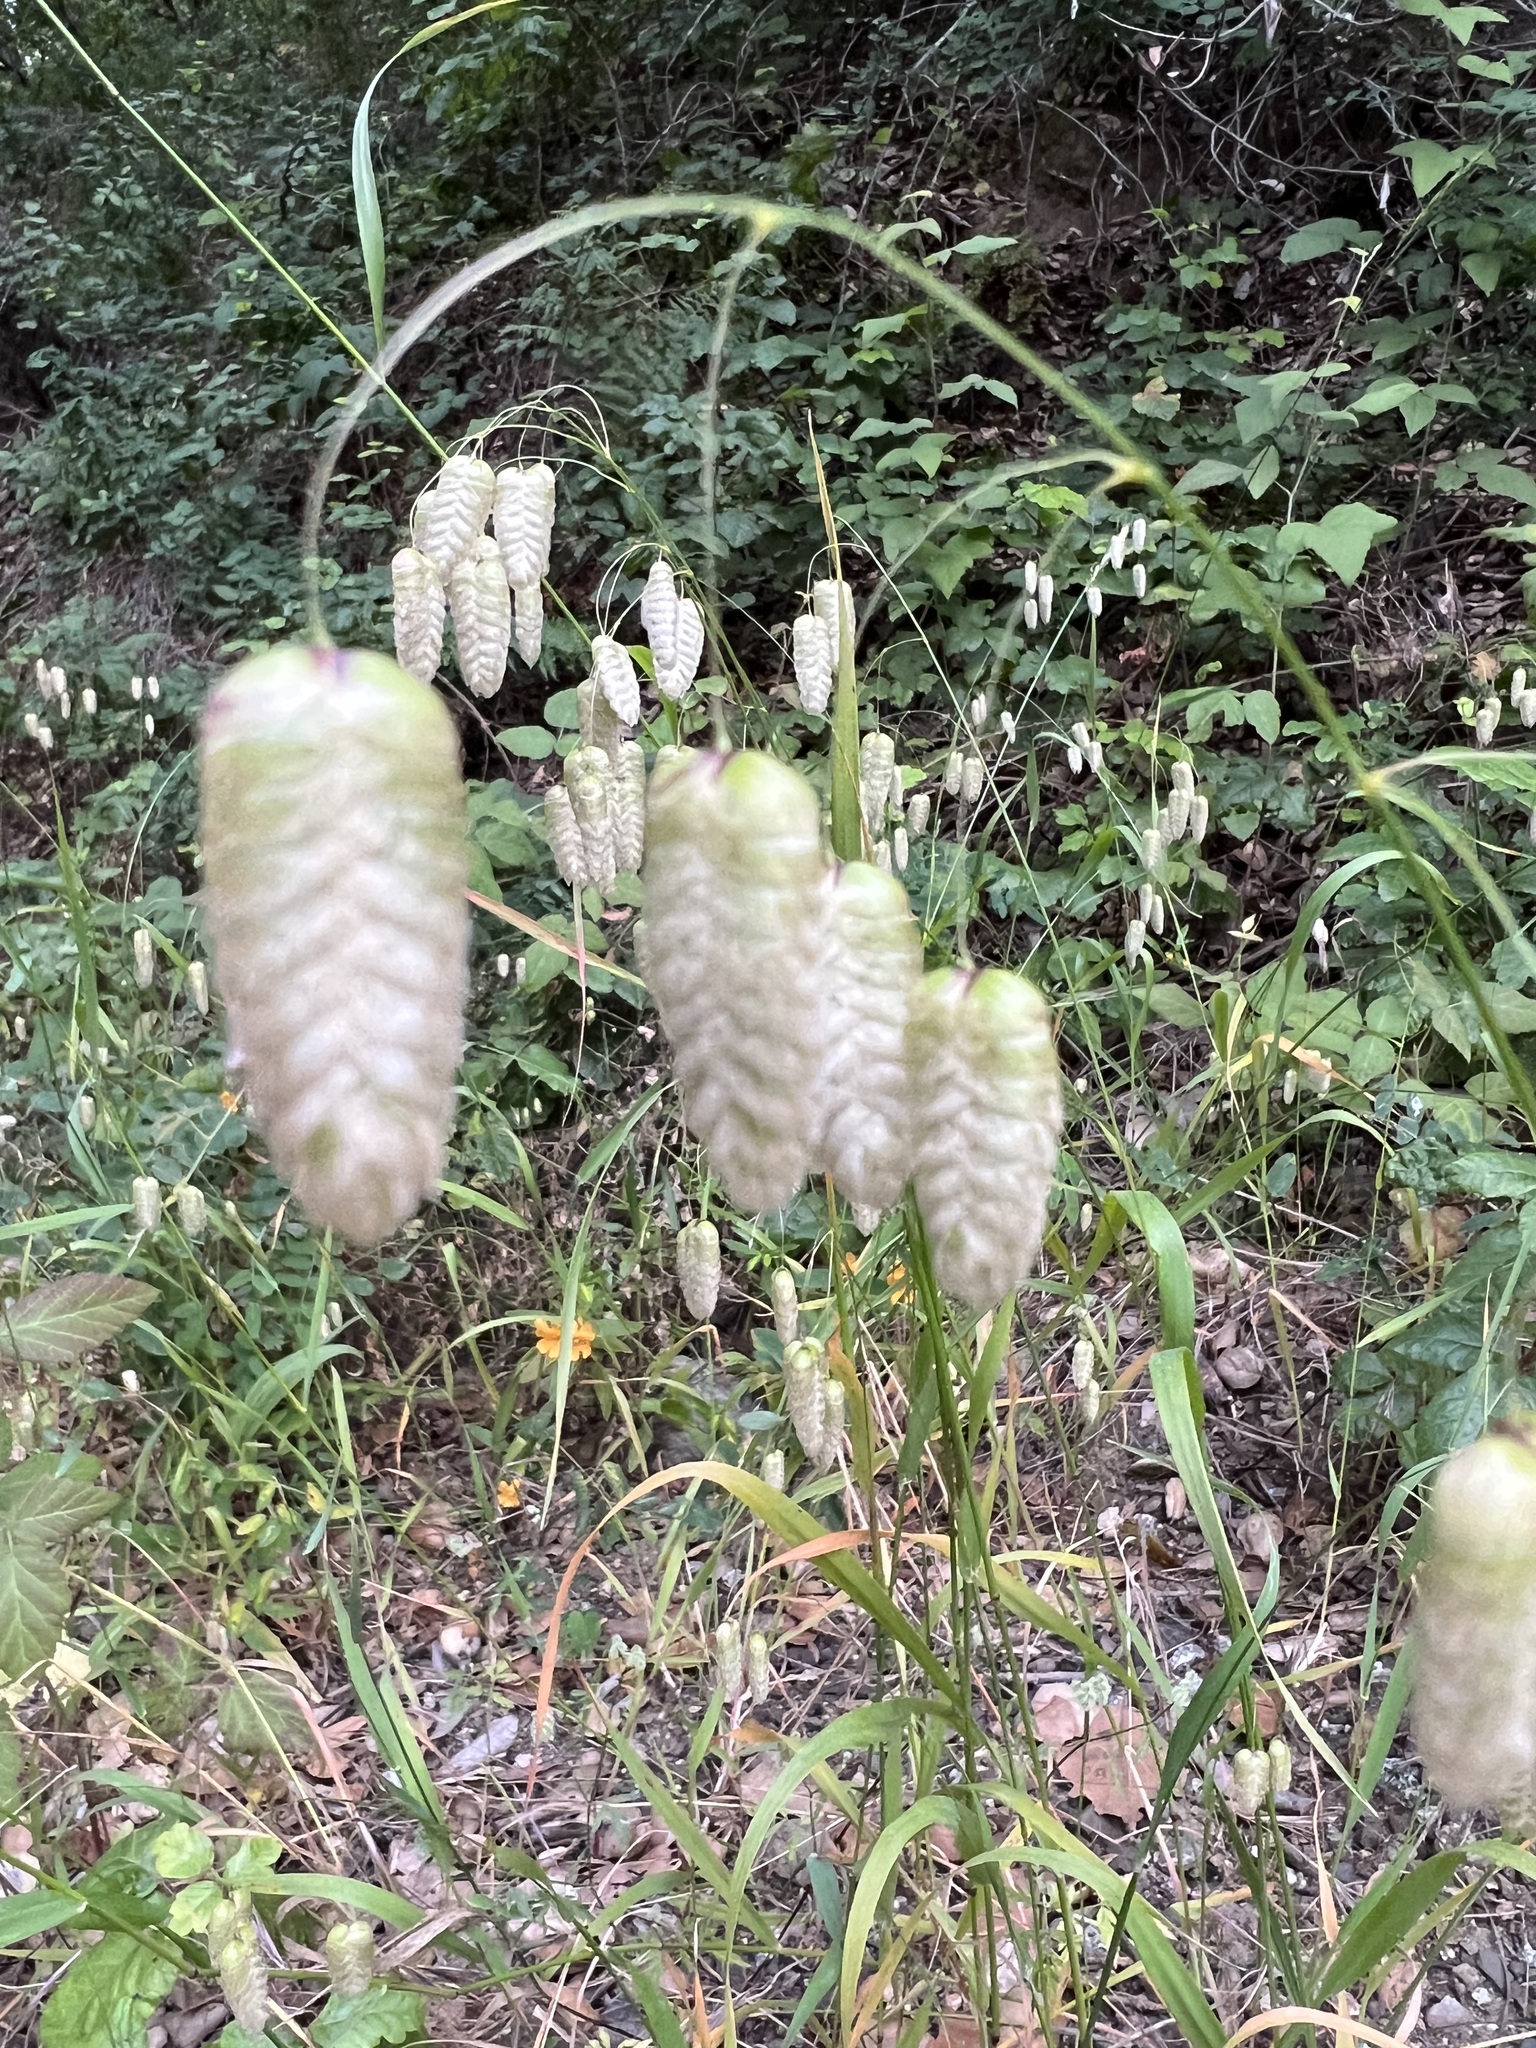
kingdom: Plantae
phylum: Tracheophyta
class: Liliopsida
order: Poales
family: Poaceae
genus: Briza
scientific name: Briza maxima
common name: Big quakinggrass
